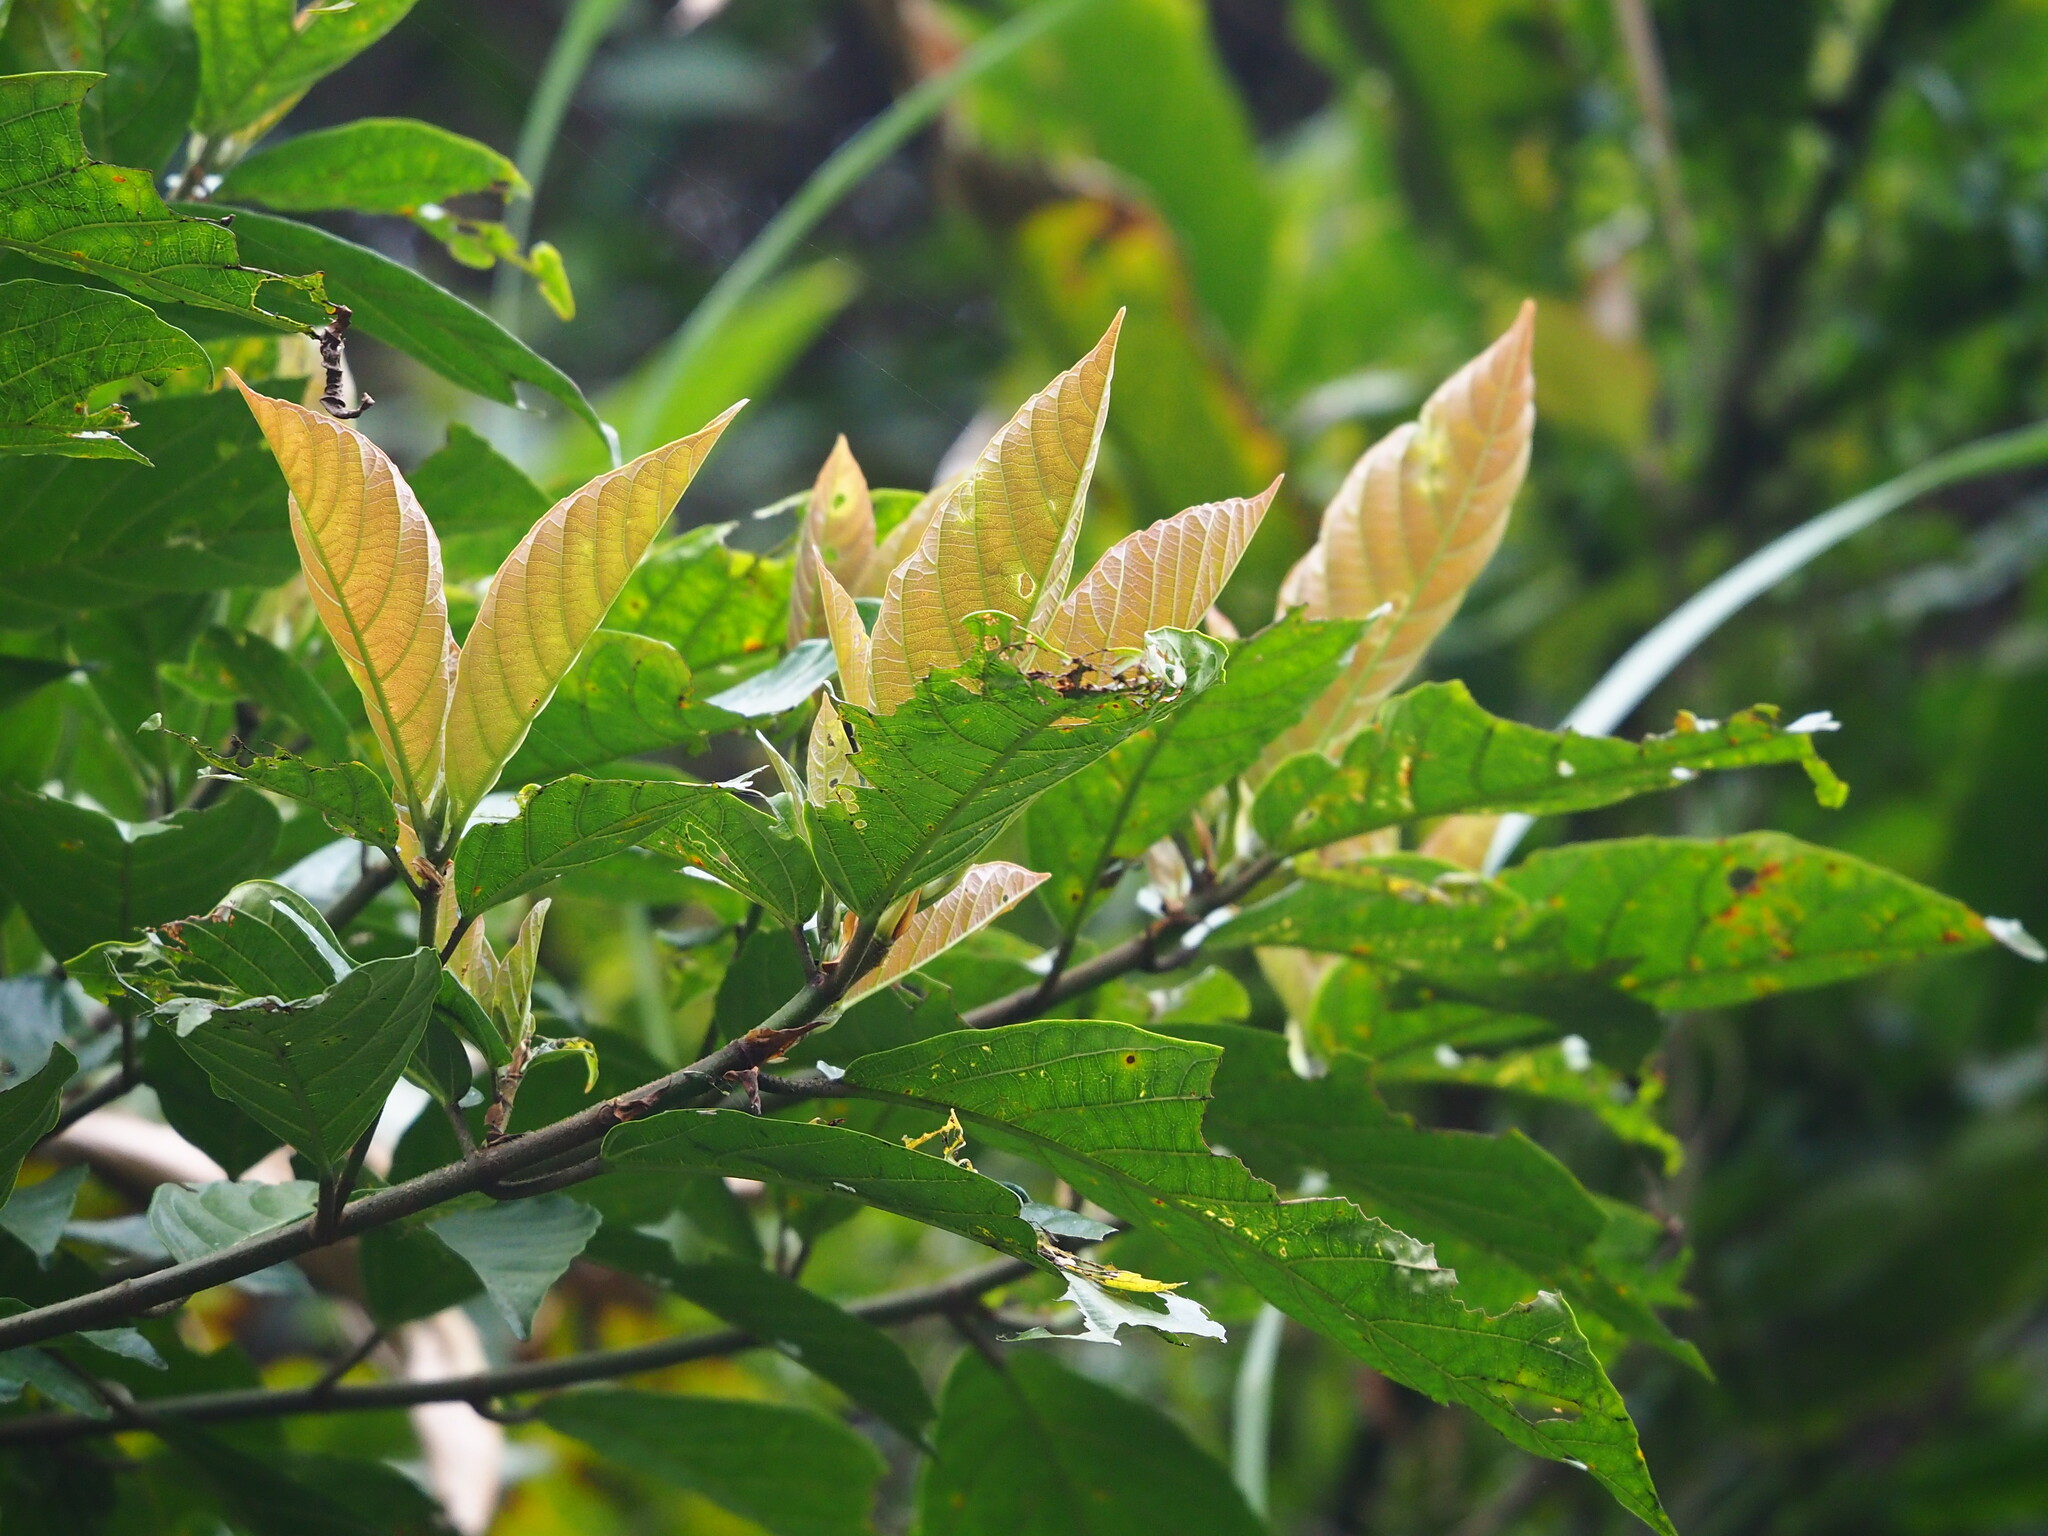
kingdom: Plantae
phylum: Tracheophyta
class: Magnoliopsida
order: Rosales
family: Moraceae
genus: Ficus
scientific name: Ficus benguetensis
